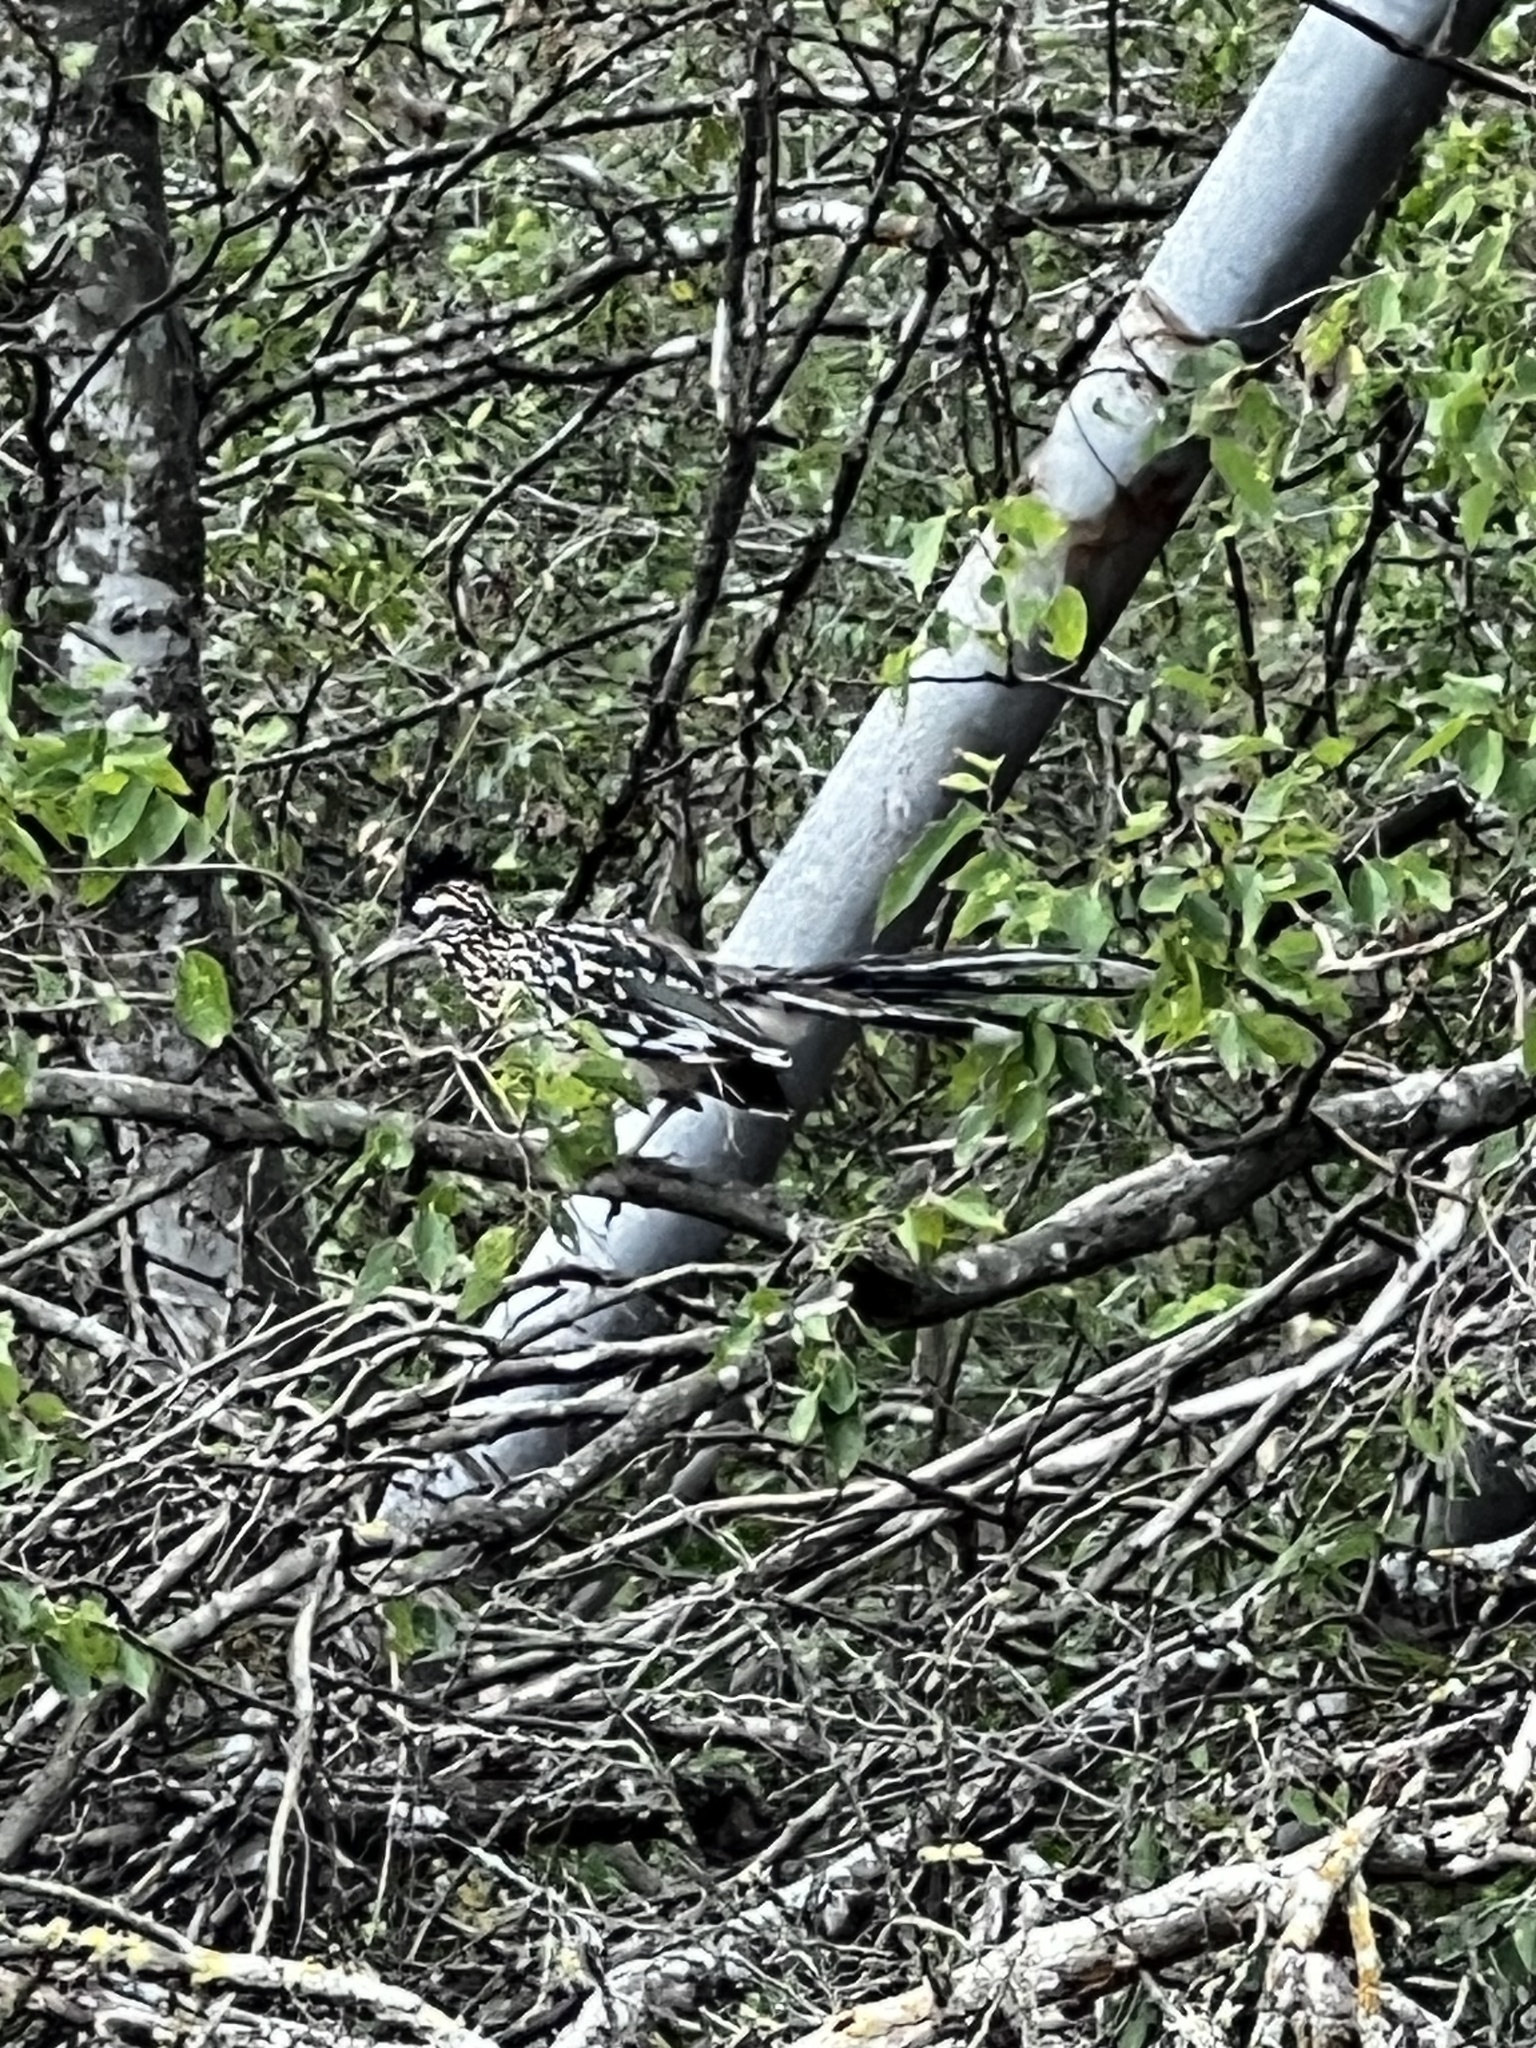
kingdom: Animalia
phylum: Chordata
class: Aves
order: Cuculiformes
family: Cuculidae
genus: Geococcyx
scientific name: Geococcyx californianus
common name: Greater roadrunner
